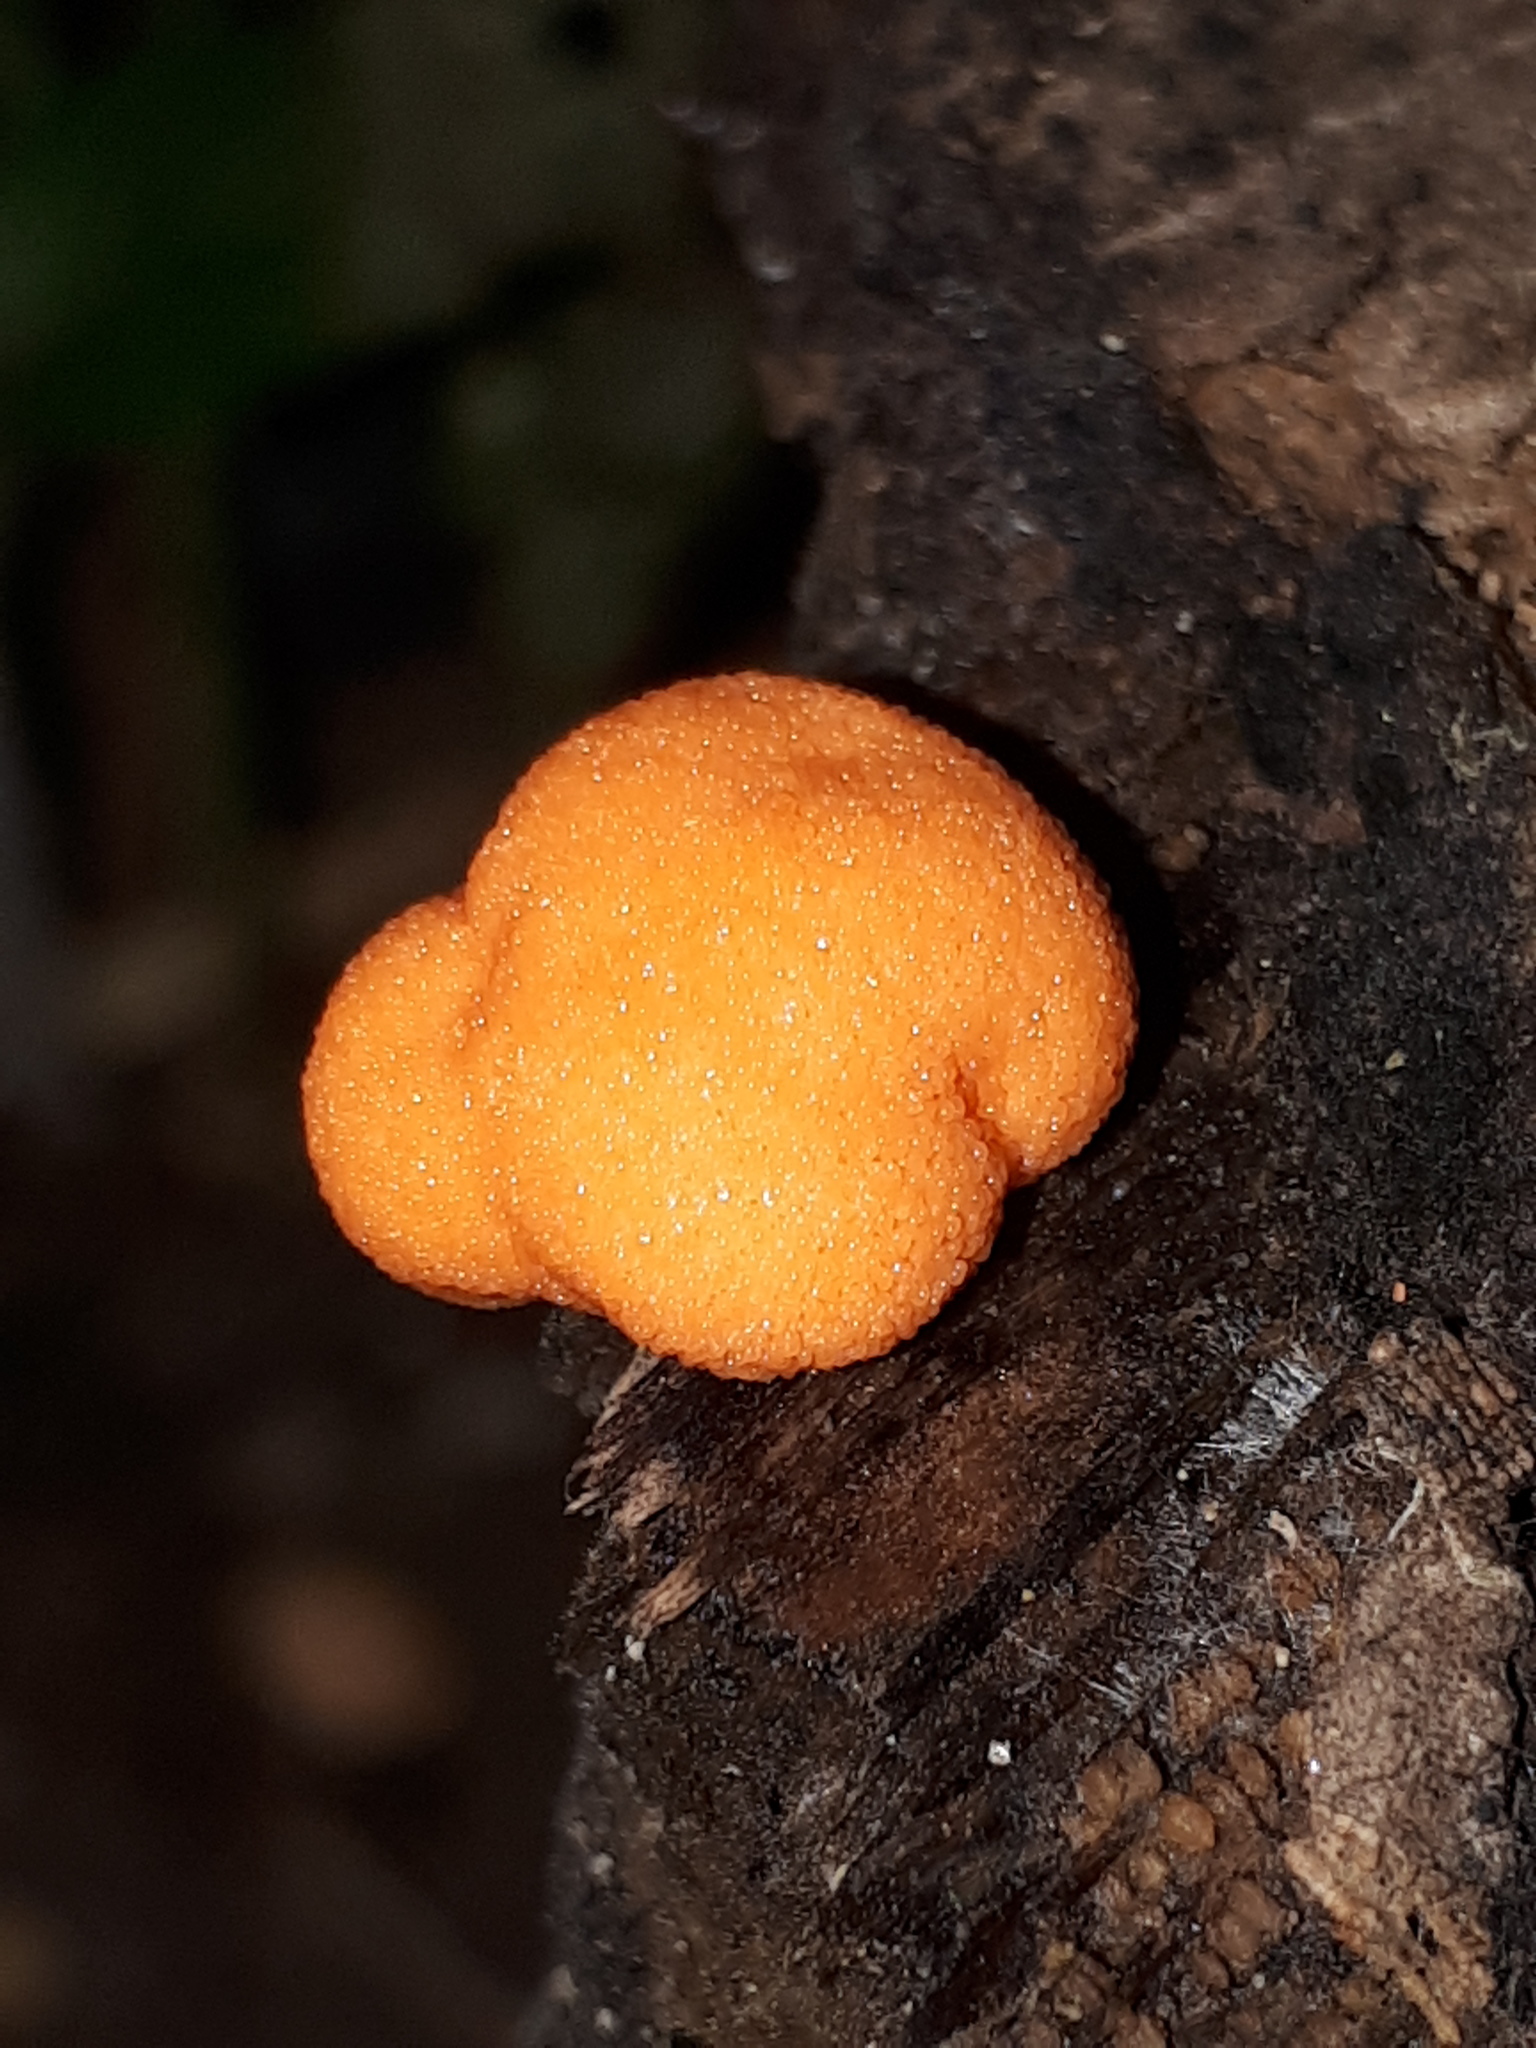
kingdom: Protozoa
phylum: Mycetozoa
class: Myxomycetes
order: Cribrariales
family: Tubiferaceae
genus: Tubifera
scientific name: Tubifera ferruginosa
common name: Red raspberry slime mold
